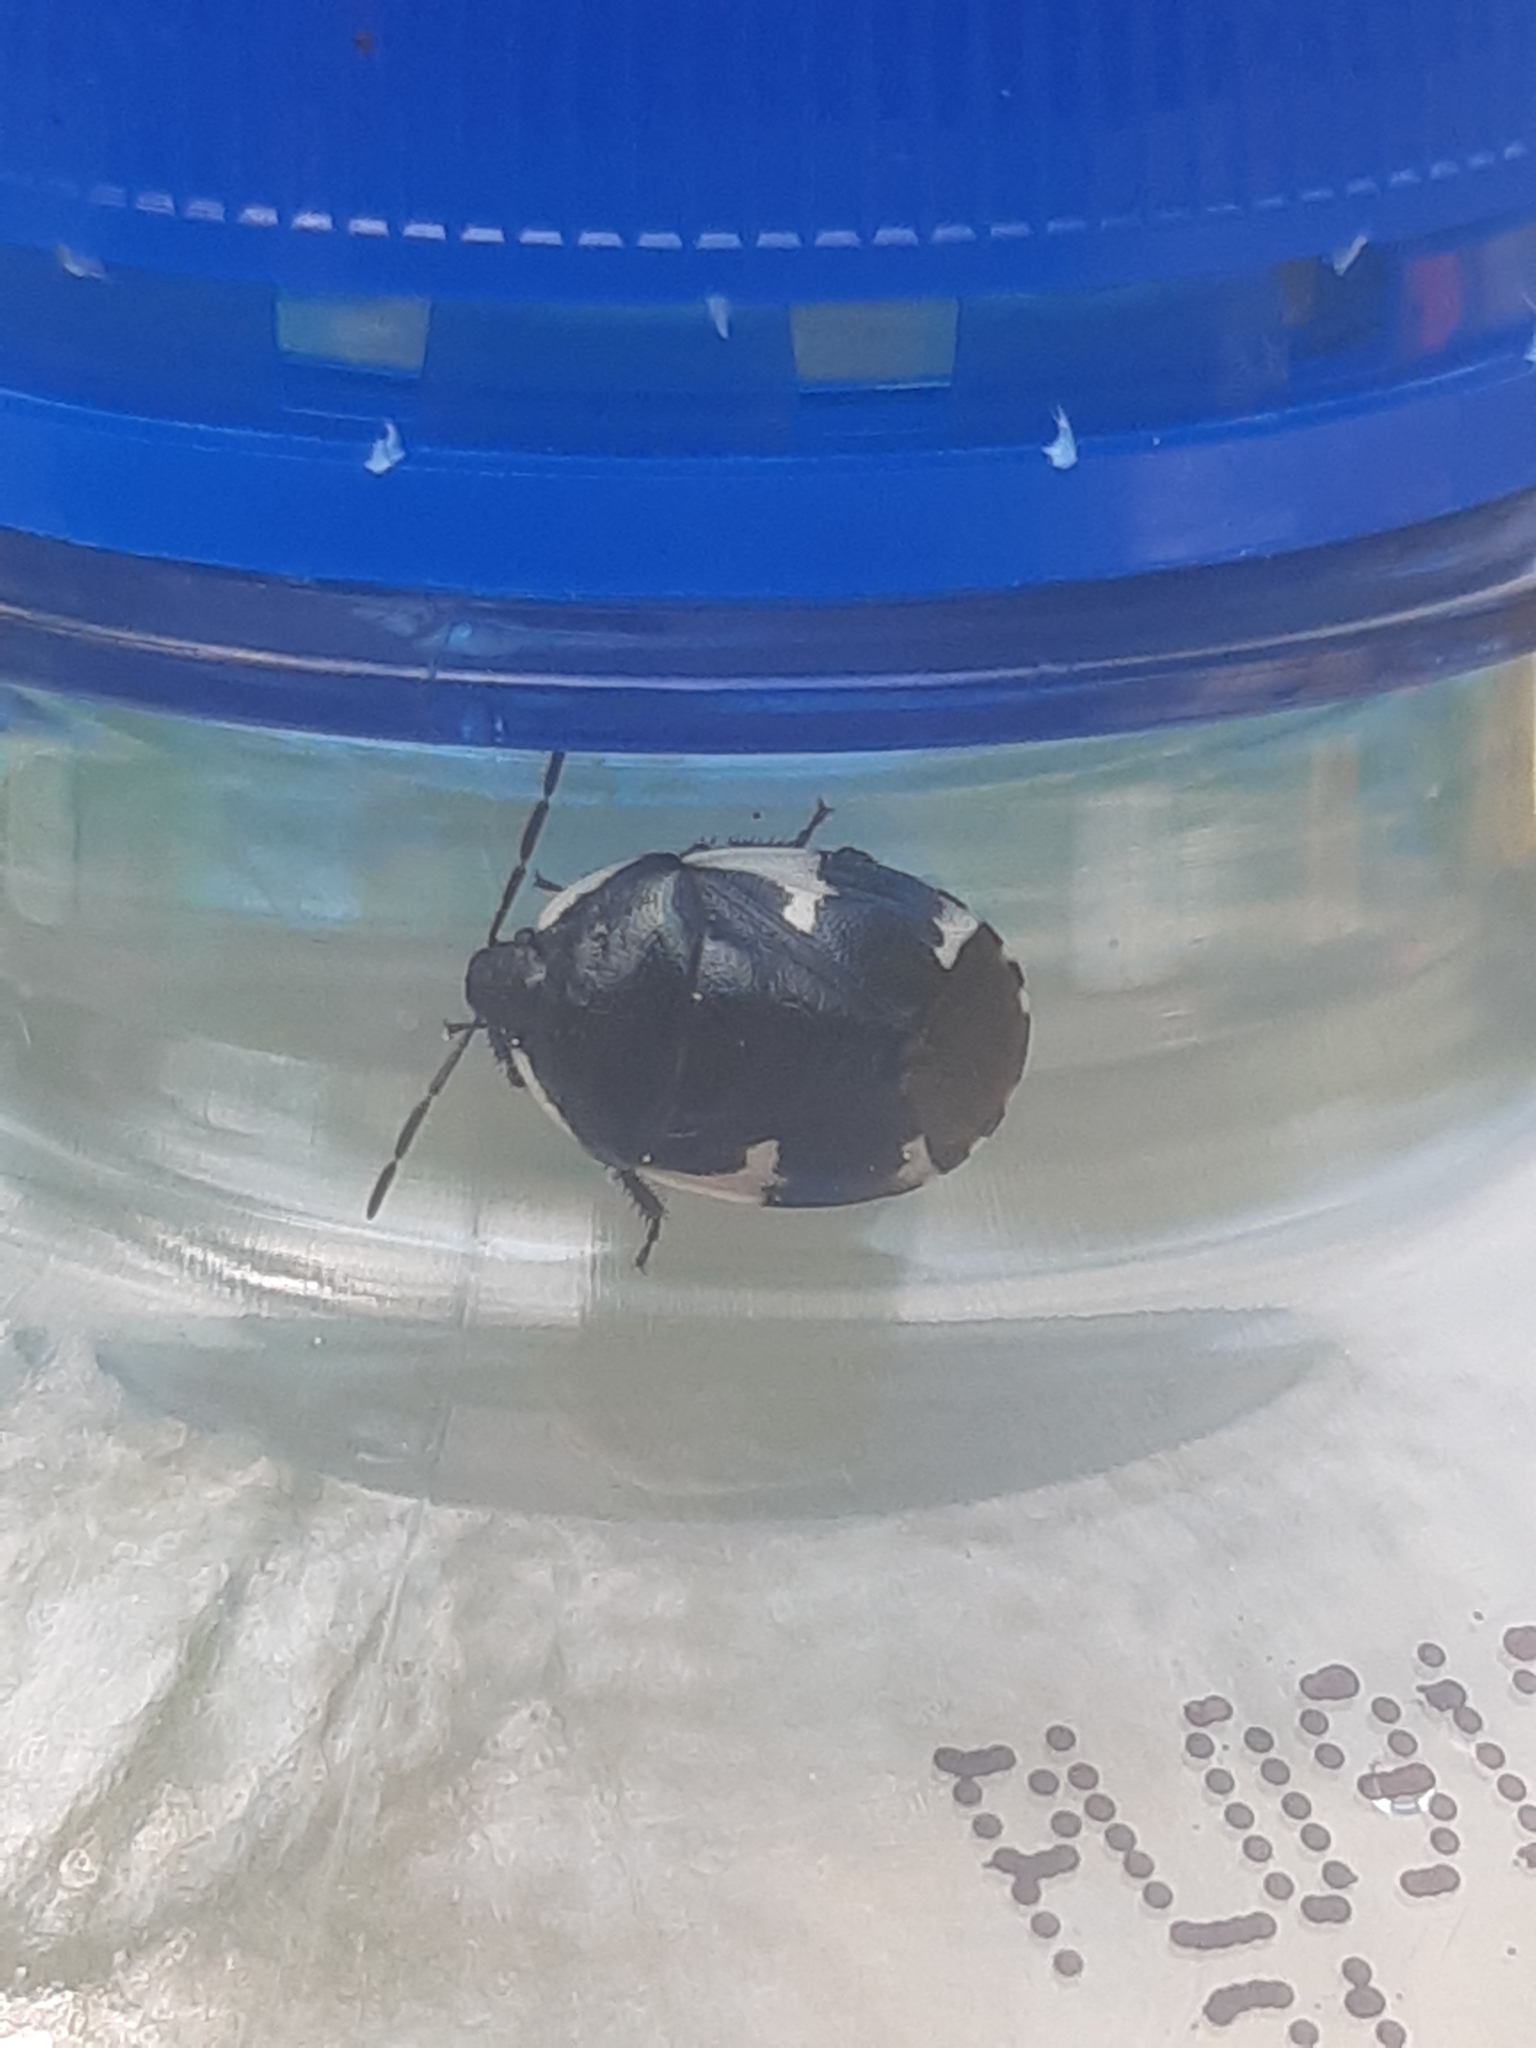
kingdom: Animalia
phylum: Arthropoda
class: Insecta
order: Hemiptera
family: Cydnidae
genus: Tritomegas
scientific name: Tritomegas sexmaculatus
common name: Rambur's pied shieldbug
